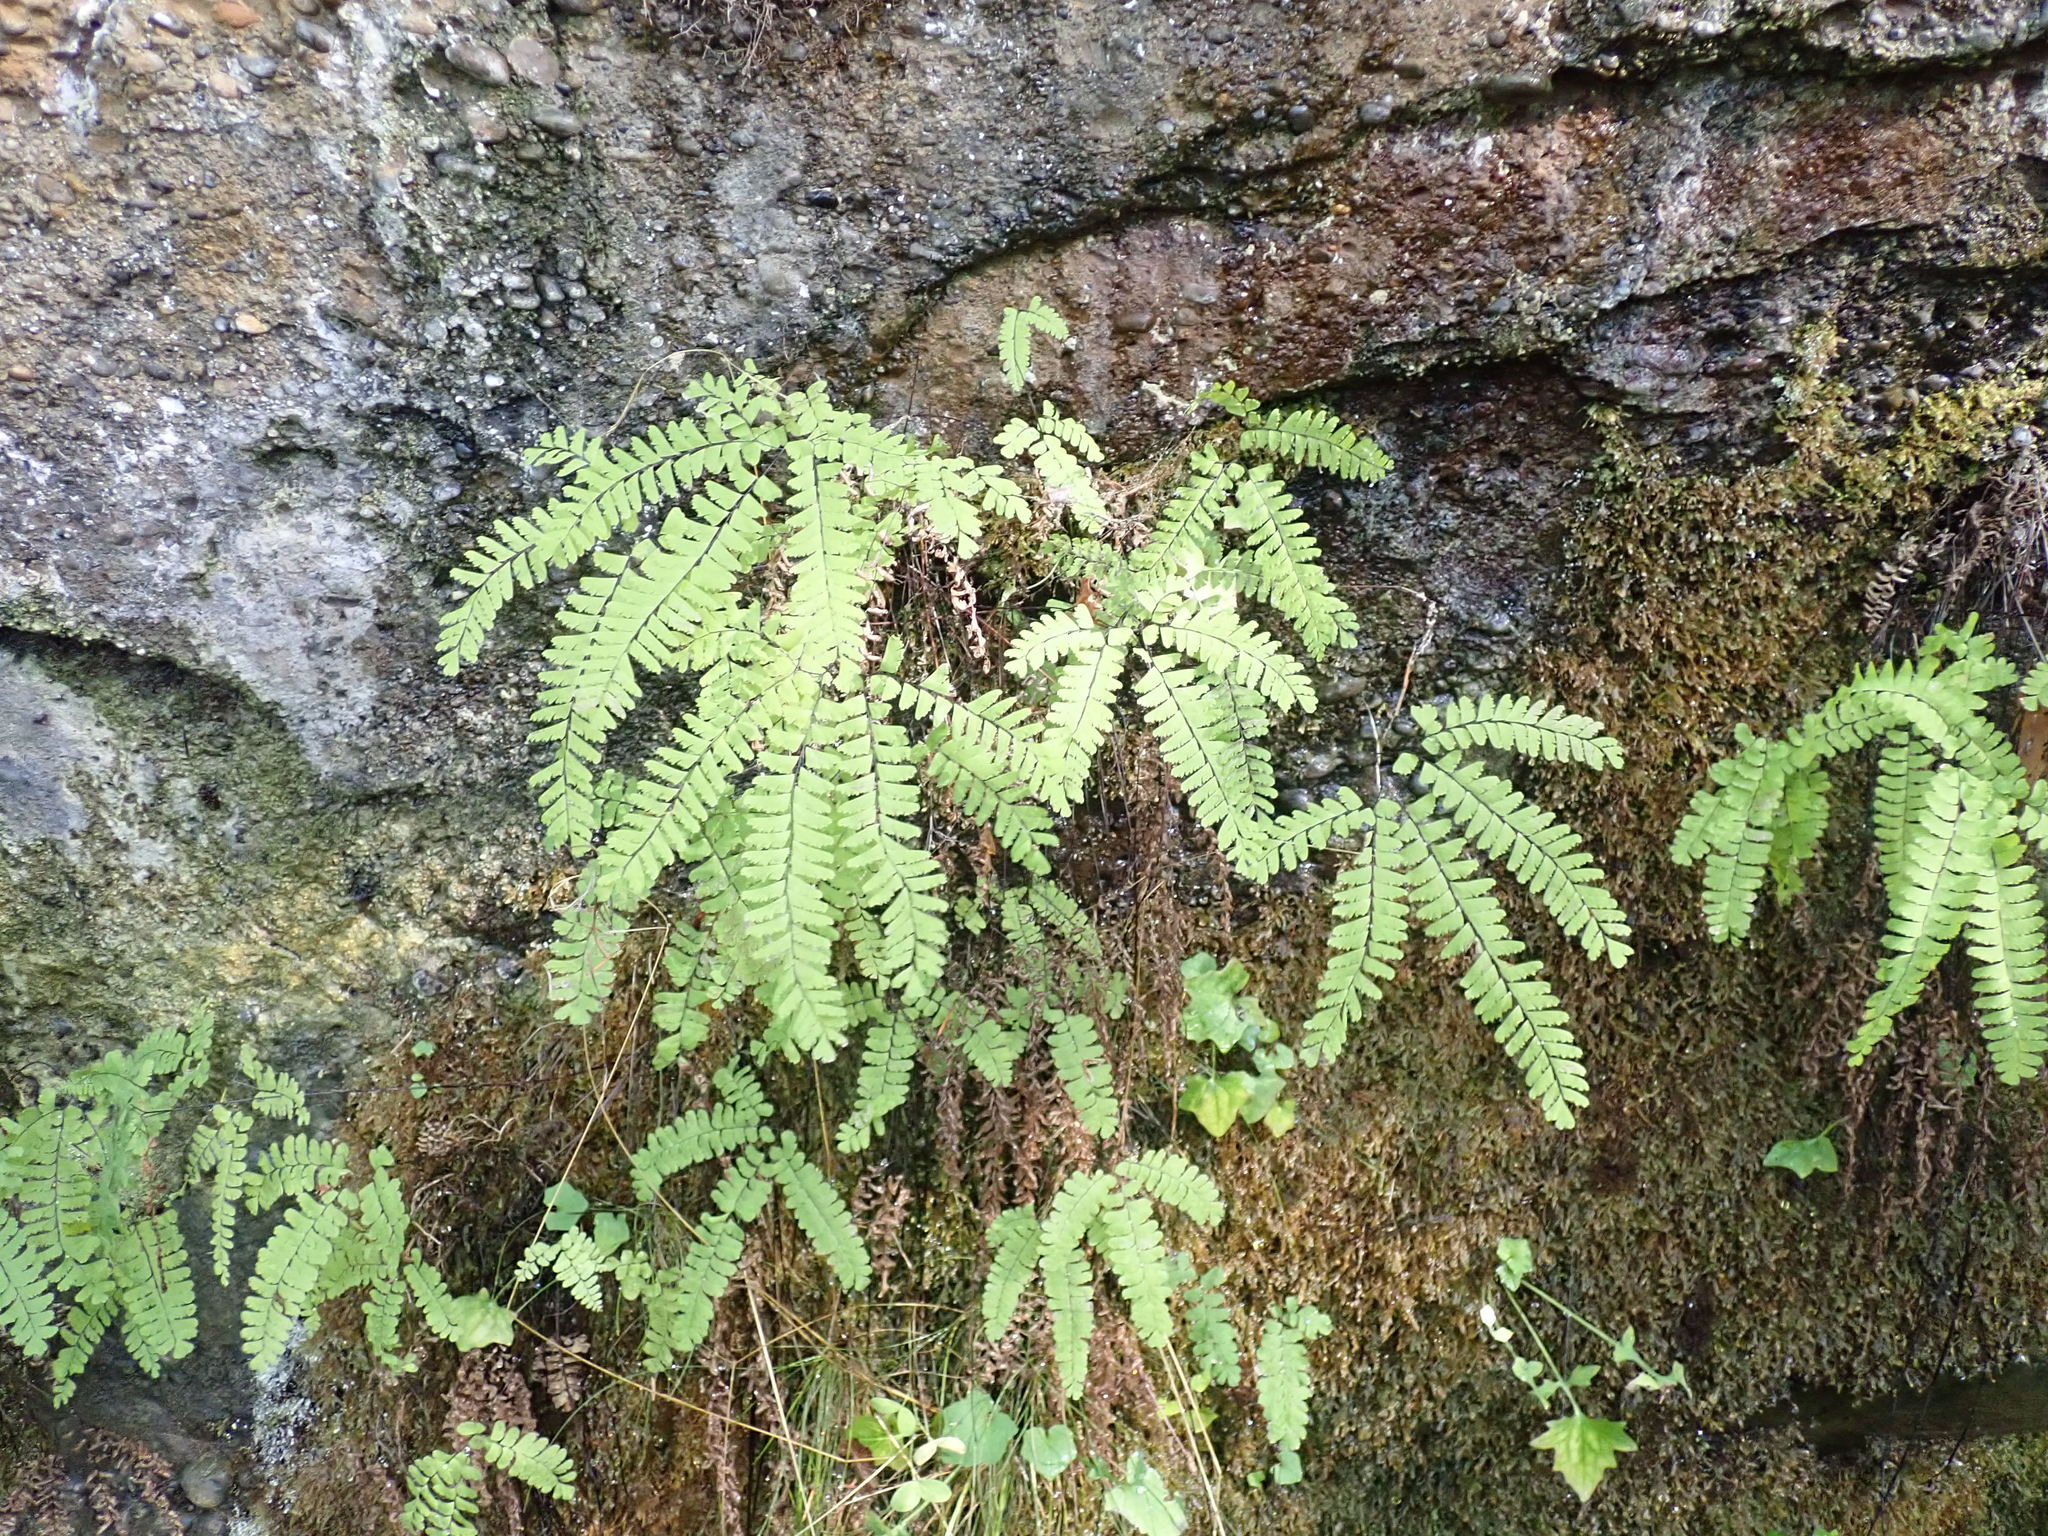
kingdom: Plantae
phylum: Tracheophyta
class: Polypodiopsida
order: Polypodiales
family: Pteridaceae
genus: Adiantum
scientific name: Adiantum aleuticum
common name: Aleutian maidenhair fern
